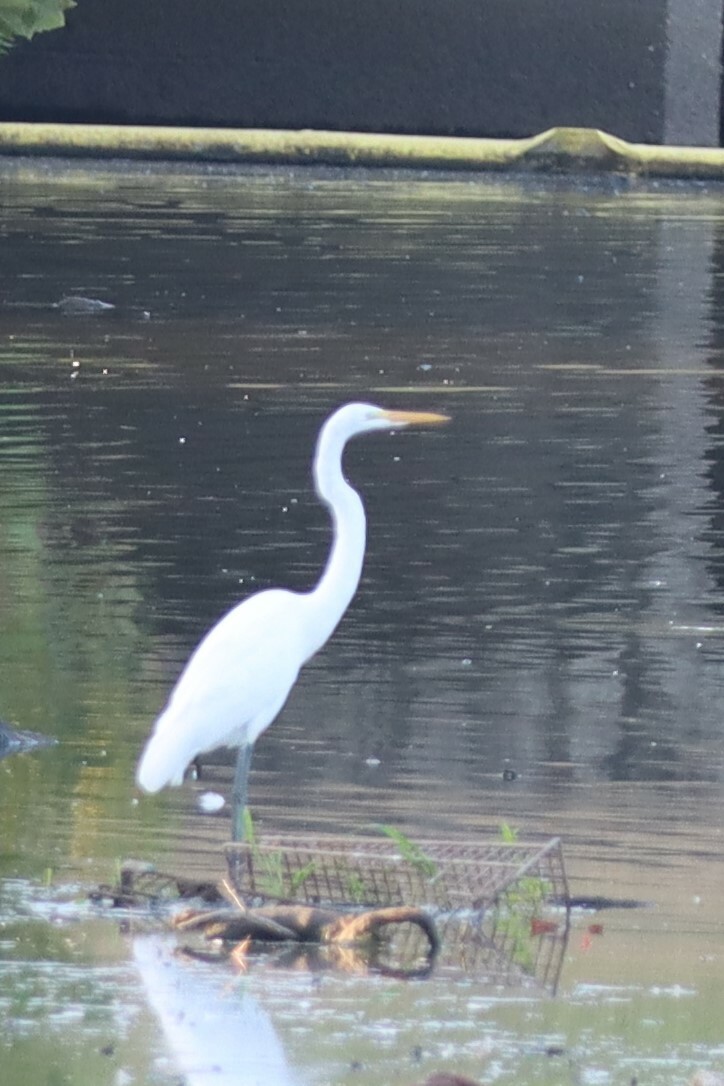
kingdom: Animalia
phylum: Chordata
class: Aves
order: Pelecaniformes
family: Ardeidae
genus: Ardea
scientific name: Ardea alba
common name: Great egret
